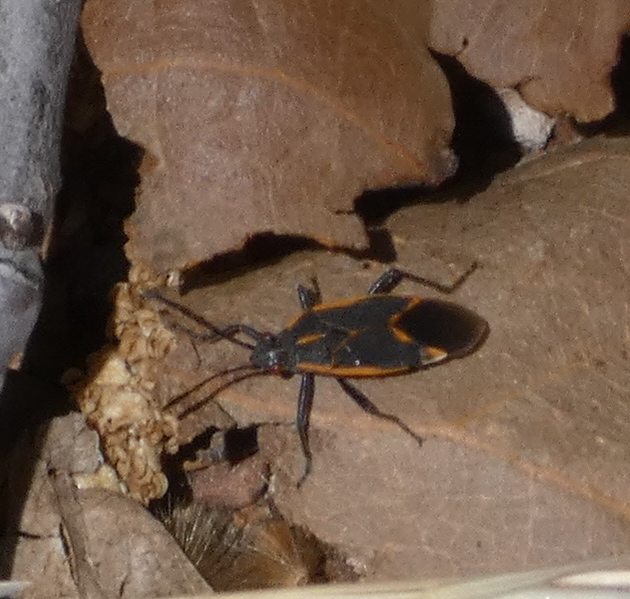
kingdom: Animalia
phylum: Arthropoda
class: Insecta
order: Hemiptera
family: Rhopalidae
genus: Boisea
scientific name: Boisea trivittata
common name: Boxelder bug
